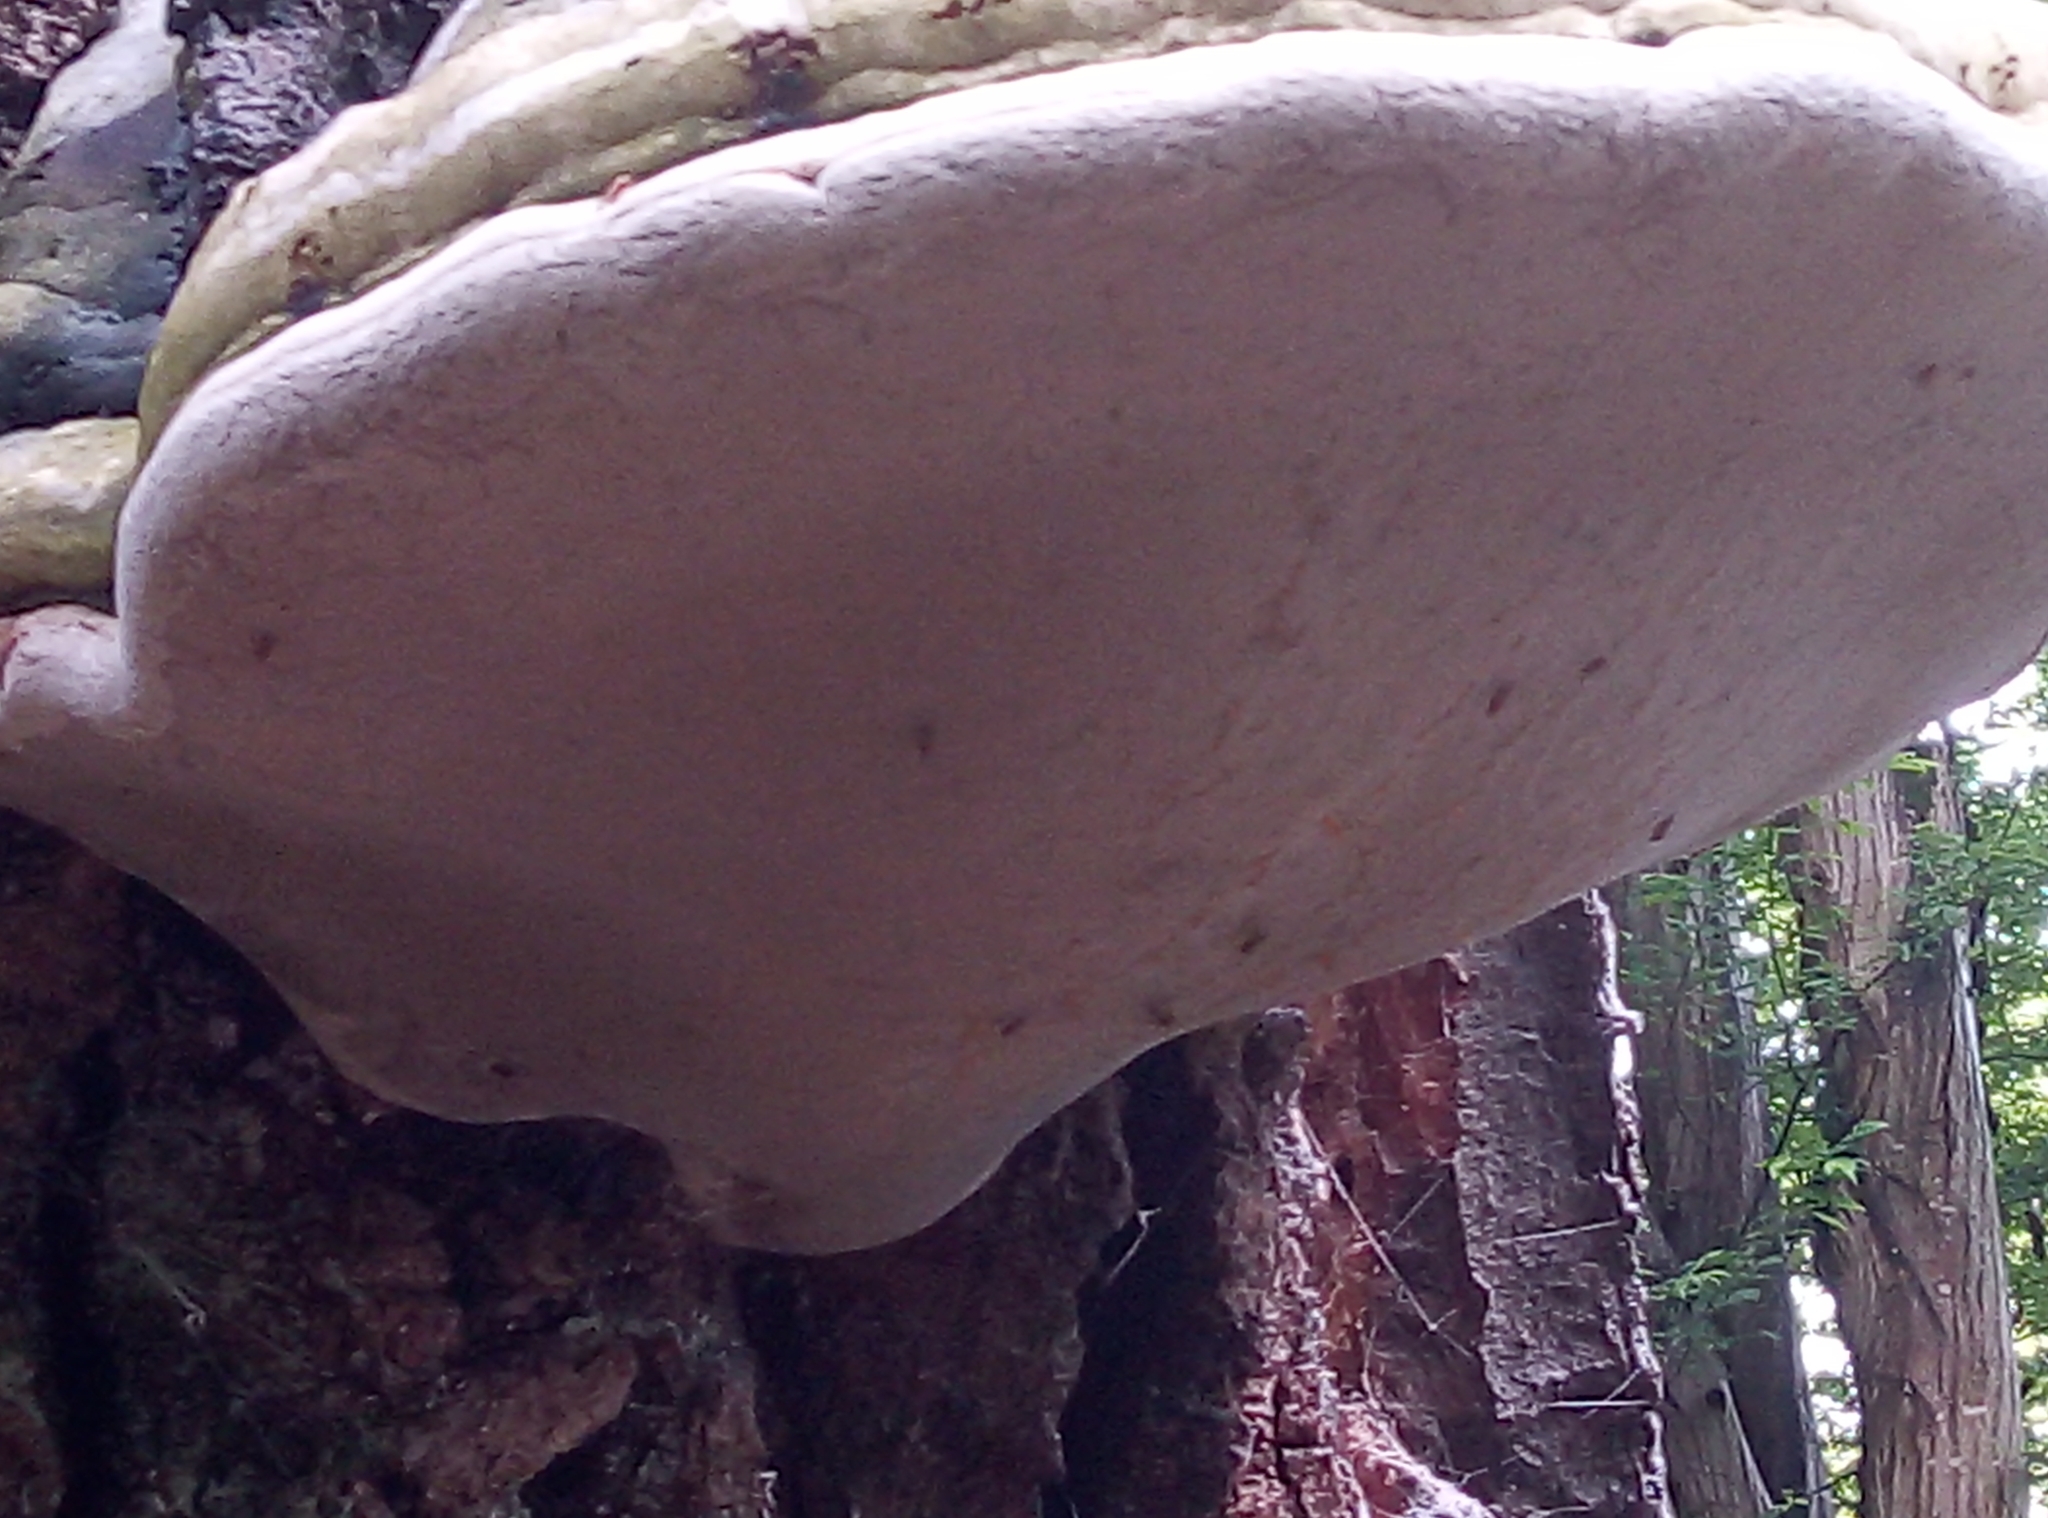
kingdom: Fungi
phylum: Basidiomycota
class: Agaricomycetes
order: Polyporales
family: Polyporaceae
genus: Fomes
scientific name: Fomes fomentarius
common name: Hoof fungus
